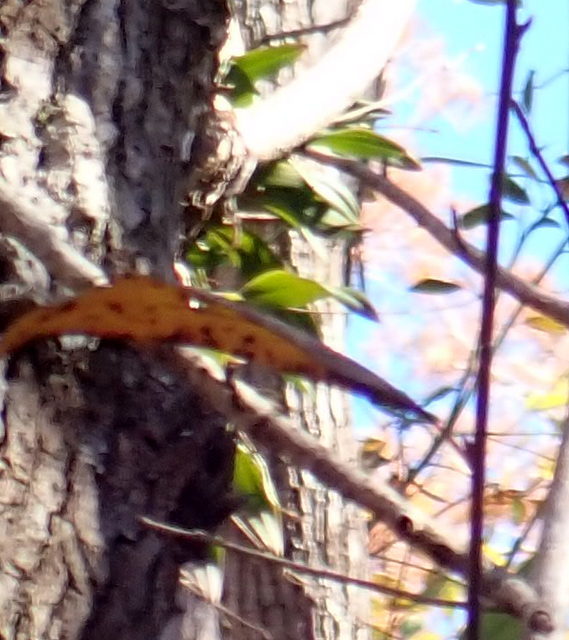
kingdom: Plantae
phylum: Tracheophyta
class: Liliopsida
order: Asparagales
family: Orchidaceae
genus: Epidendrum
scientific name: Epidendrum conopseum
